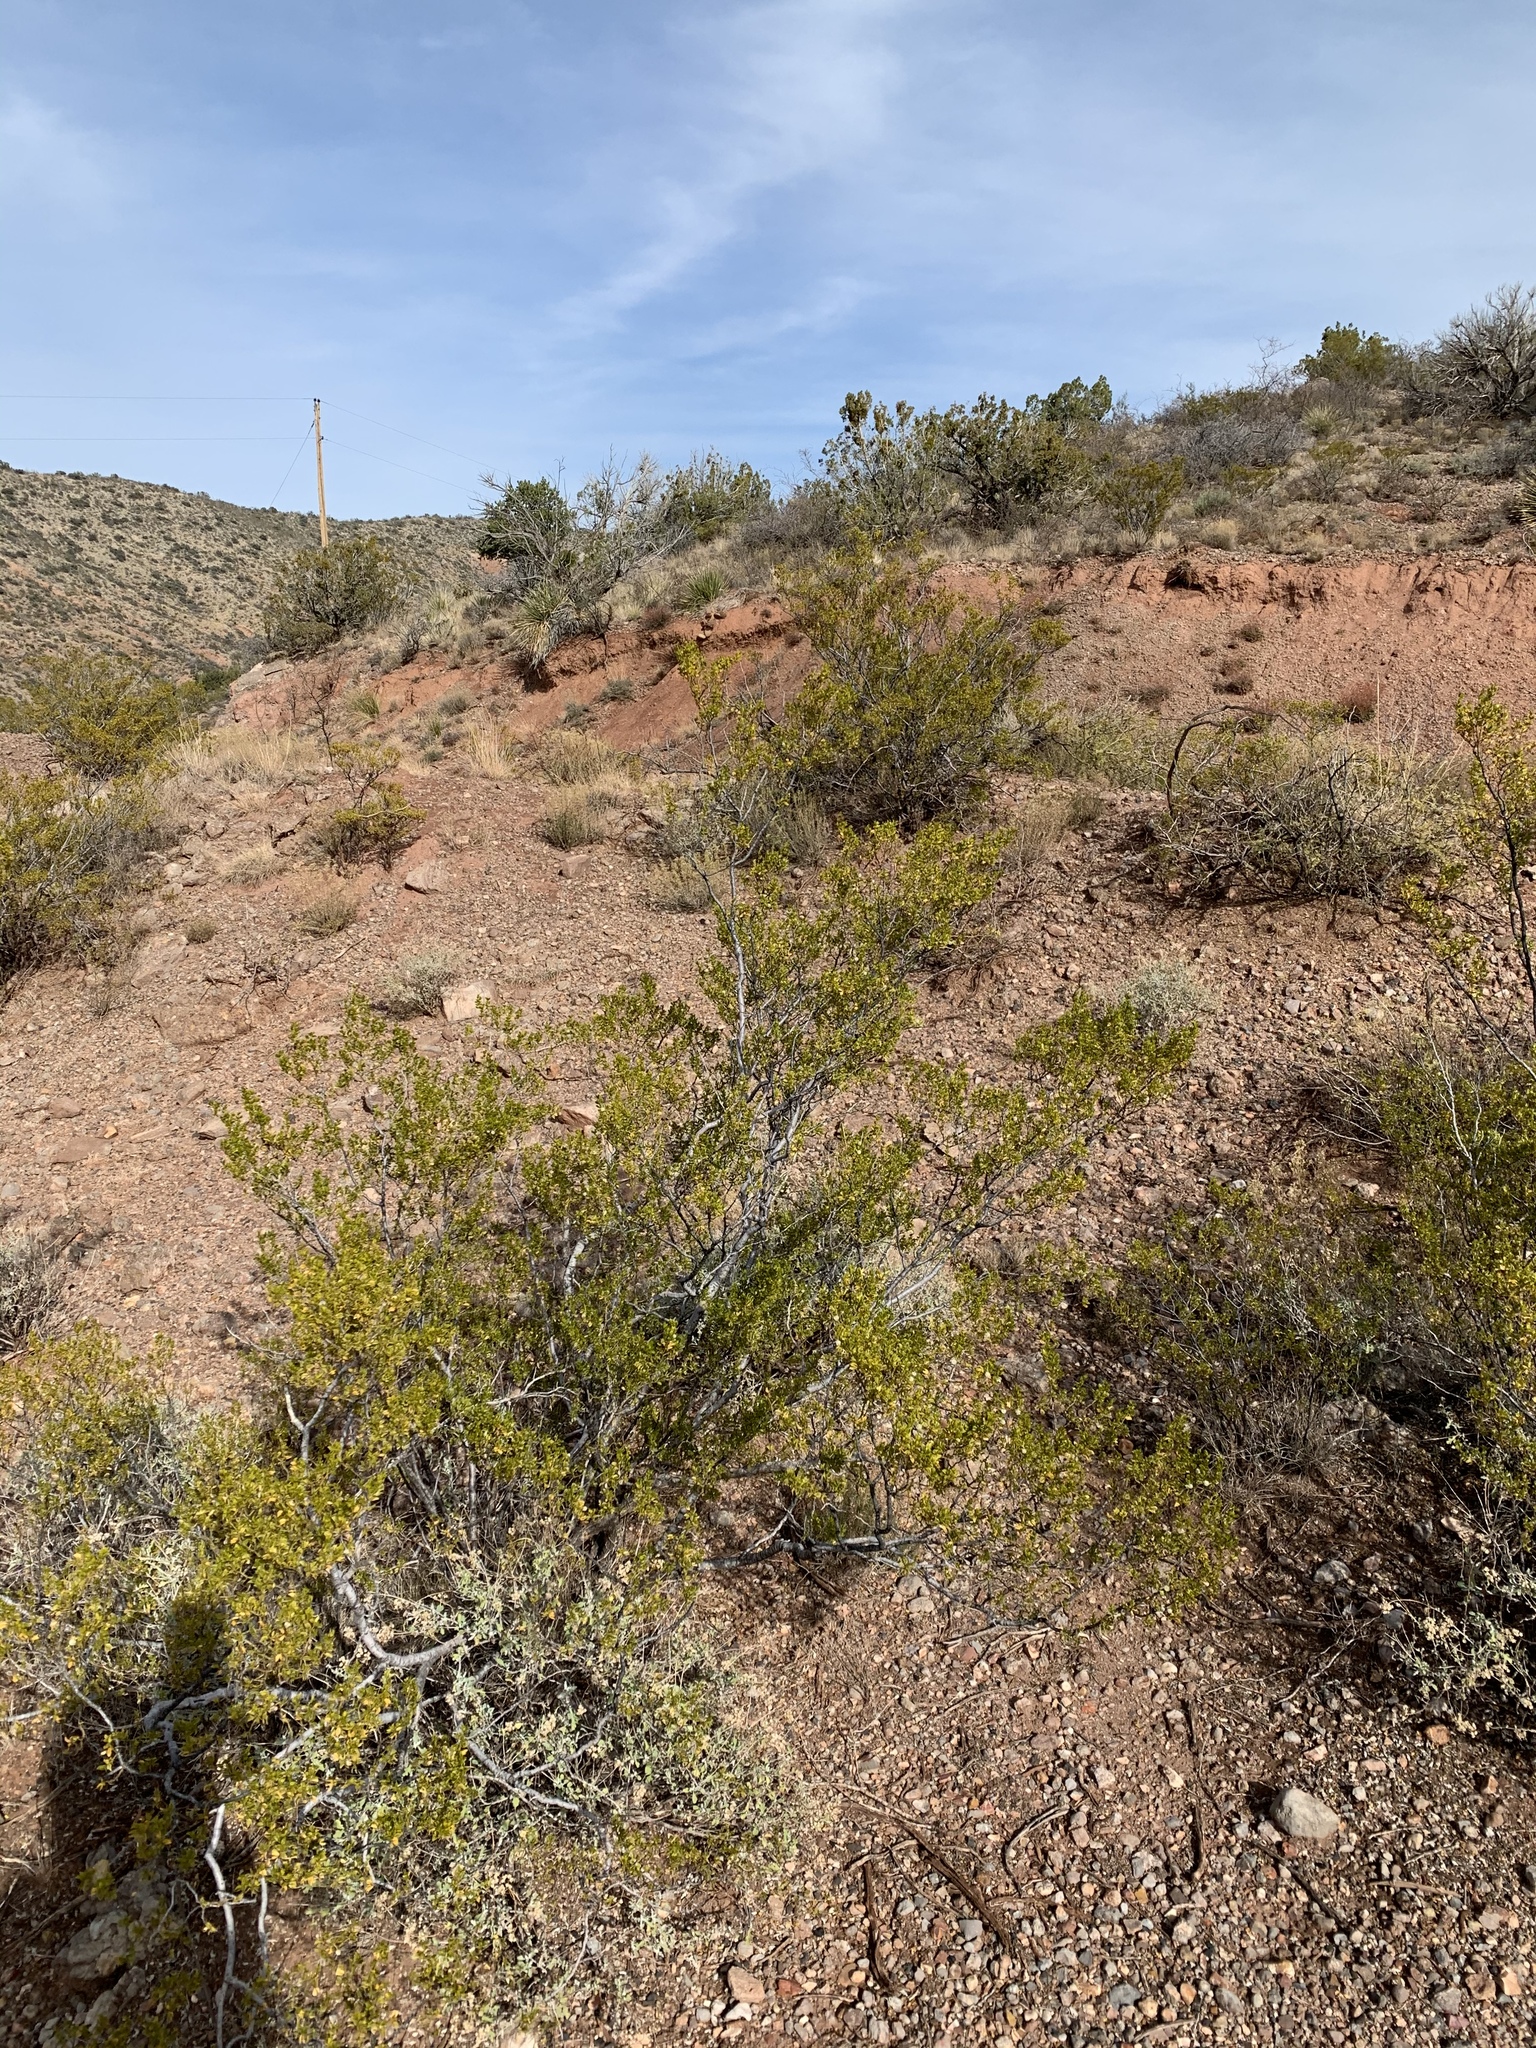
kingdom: Plantae
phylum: Tracheophyta
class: Magnoliopsida
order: Zygophyllales
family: Zygophyllaceae
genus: Larrea
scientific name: Larrea tridentata
